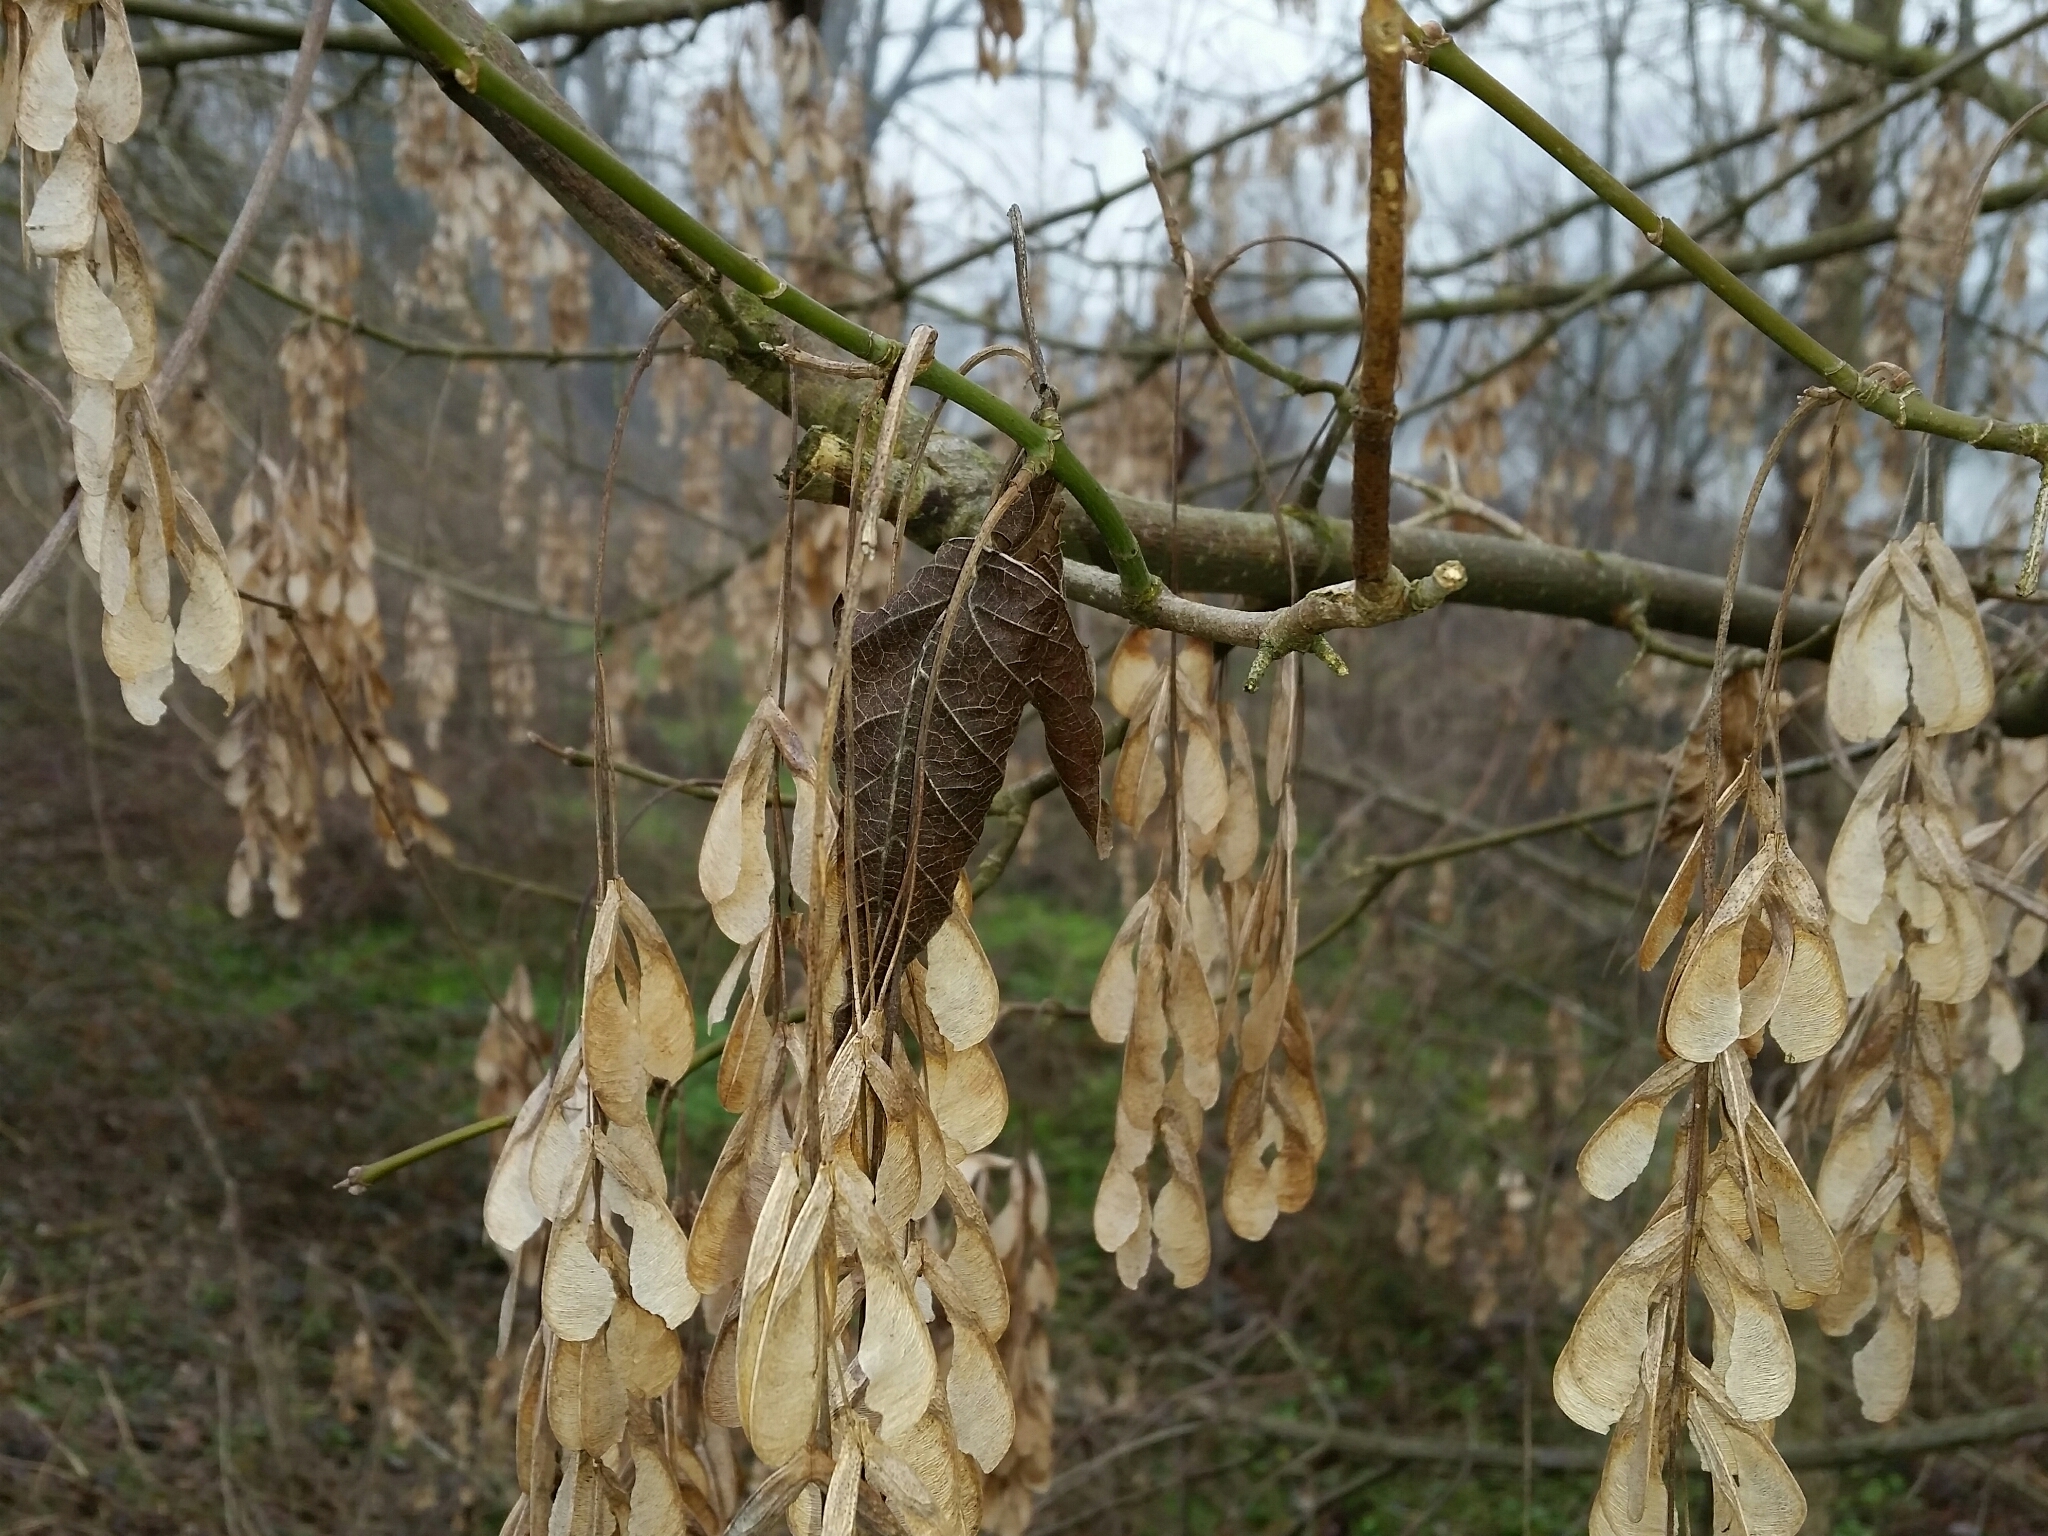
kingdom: Plantae
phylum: Tracheophyta
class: Magnoliopsida
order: Sapindales
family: Sapindaceae
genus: Acer
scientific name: Acer negundo
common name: Ashleaf maple
